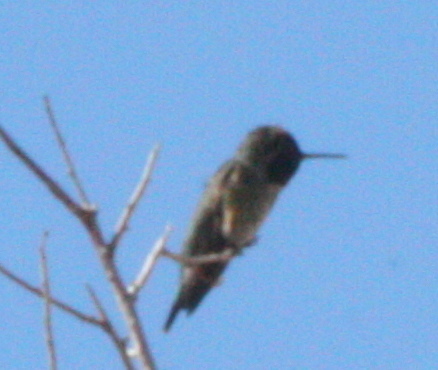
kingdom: Animalia
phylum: Chordata
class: Aves
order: Apodiformes
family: Trochilidae
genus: Calypte
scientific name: Calypte anna
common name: Anna's hummingbird
